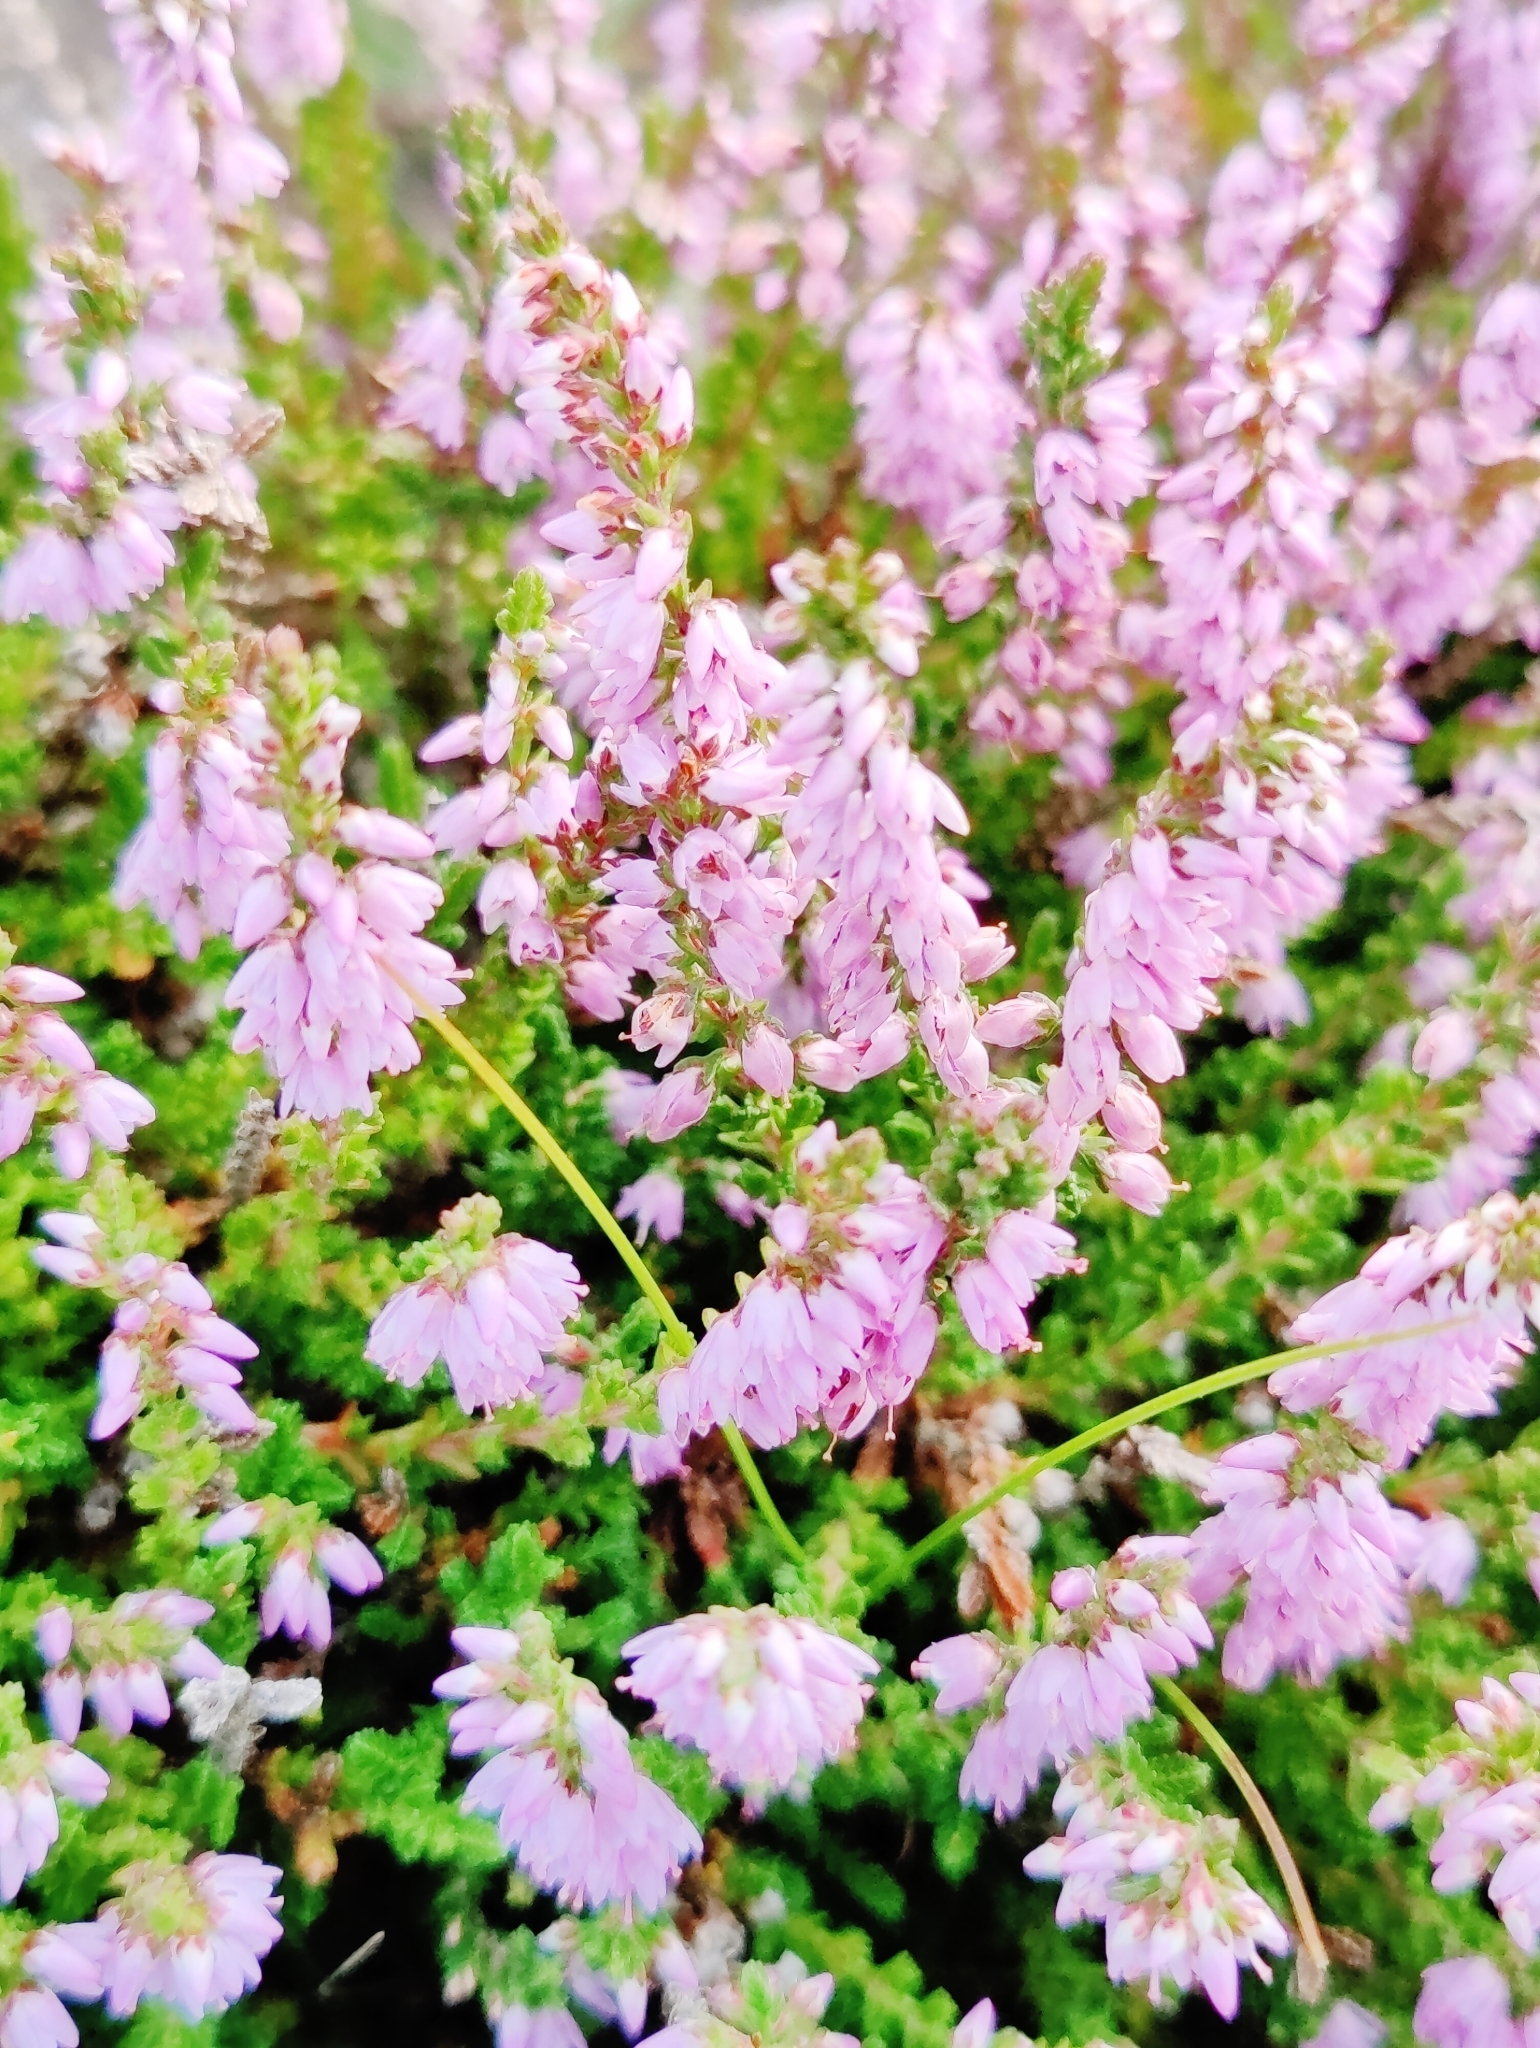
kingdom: Plantae
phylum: Tracheophyta
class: Magnoliopsida
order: Ericales
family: Ericaceae
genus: Calluna
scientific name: Calluna vulgaris
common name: Heather
